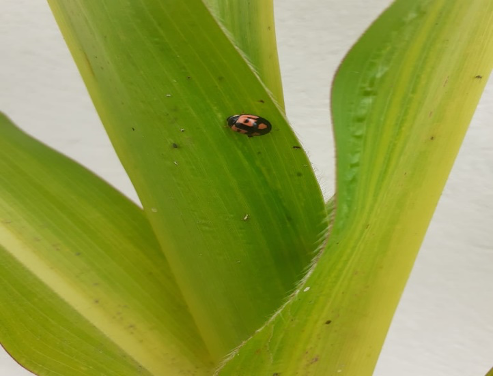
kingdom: Animalia
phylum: Arthropoda
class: Insecta
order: Coleoptera
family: Coccinellidae
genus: Cheilomenes
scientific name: Cheilomenes sexmaculata
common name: Ladybird beetle
